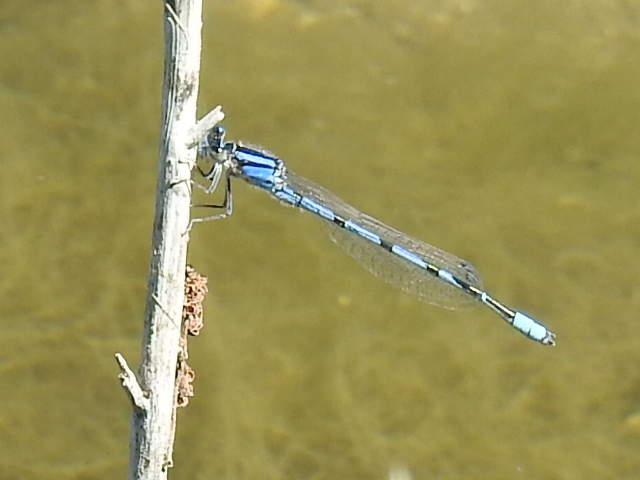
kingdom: Animalia
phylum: Arthropoda
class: Insecta
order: Odonata
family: Coenagrionidae
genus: Enallagma
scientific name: Enallagma civile
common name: Damselfly
